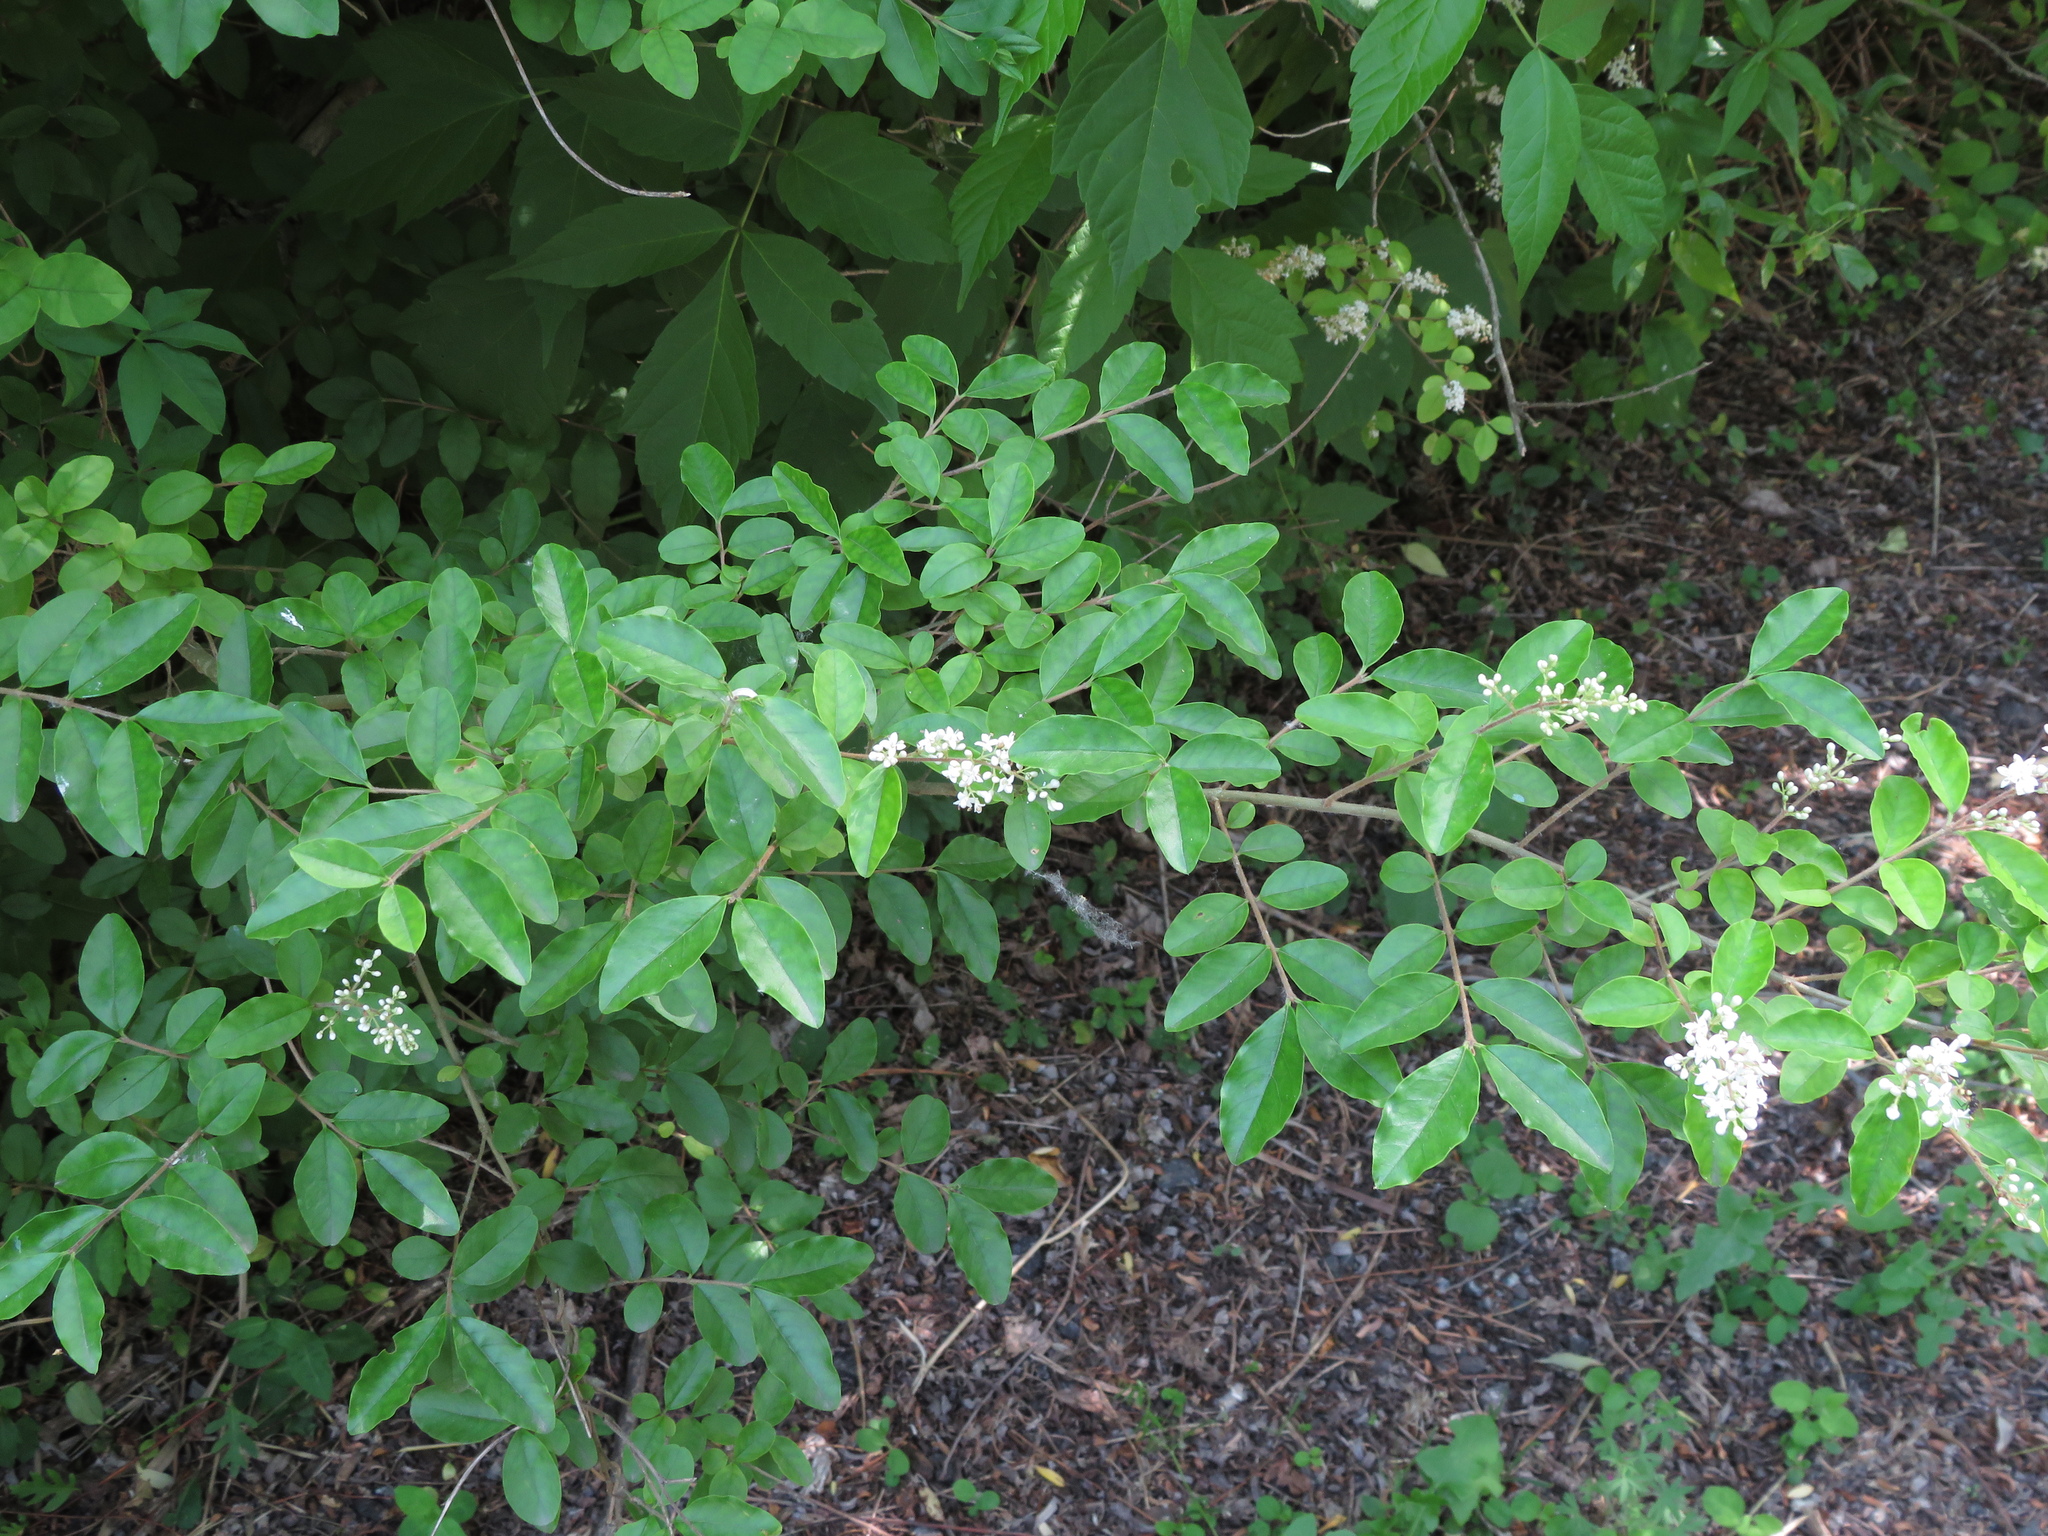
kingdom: Plantae
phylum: Tracheophyta
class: Magnoliopsida
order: Lamiales
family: Oleaceae
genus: Ligustrum
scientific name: Ligustrum sinense
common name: Chinese privet
